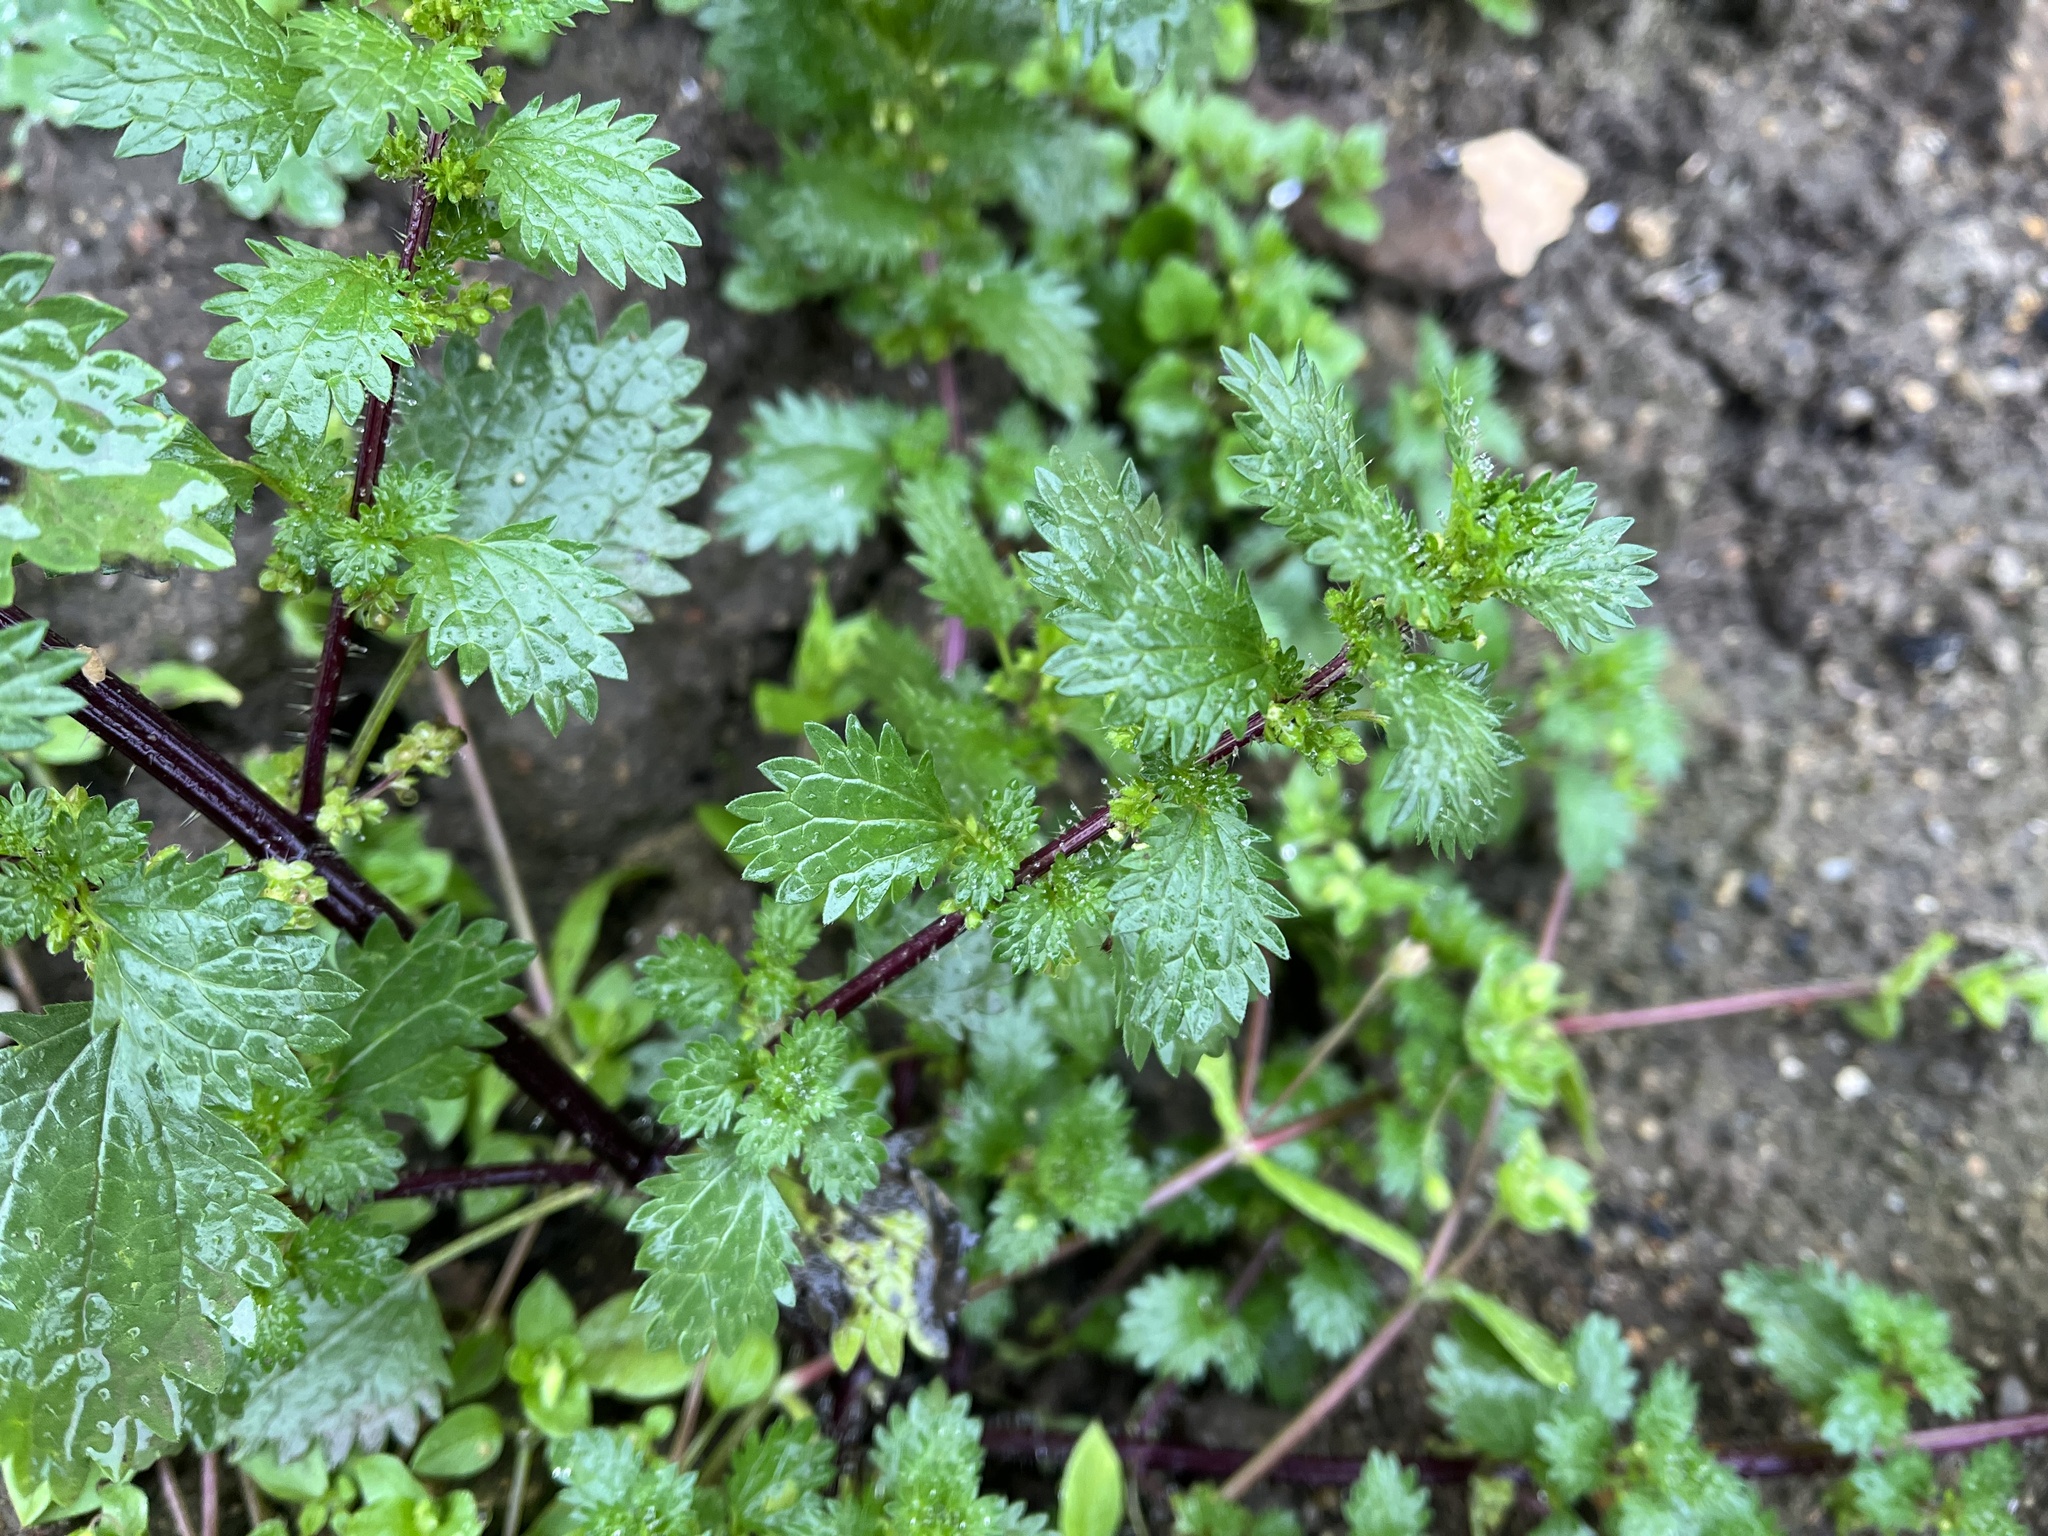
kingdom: Plantae
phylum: Tracheophyta
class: Magnoliopsida
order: Rosales
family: Urticaceae
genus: Urtica
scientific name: Urtica urens
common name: Dwarf nettle
